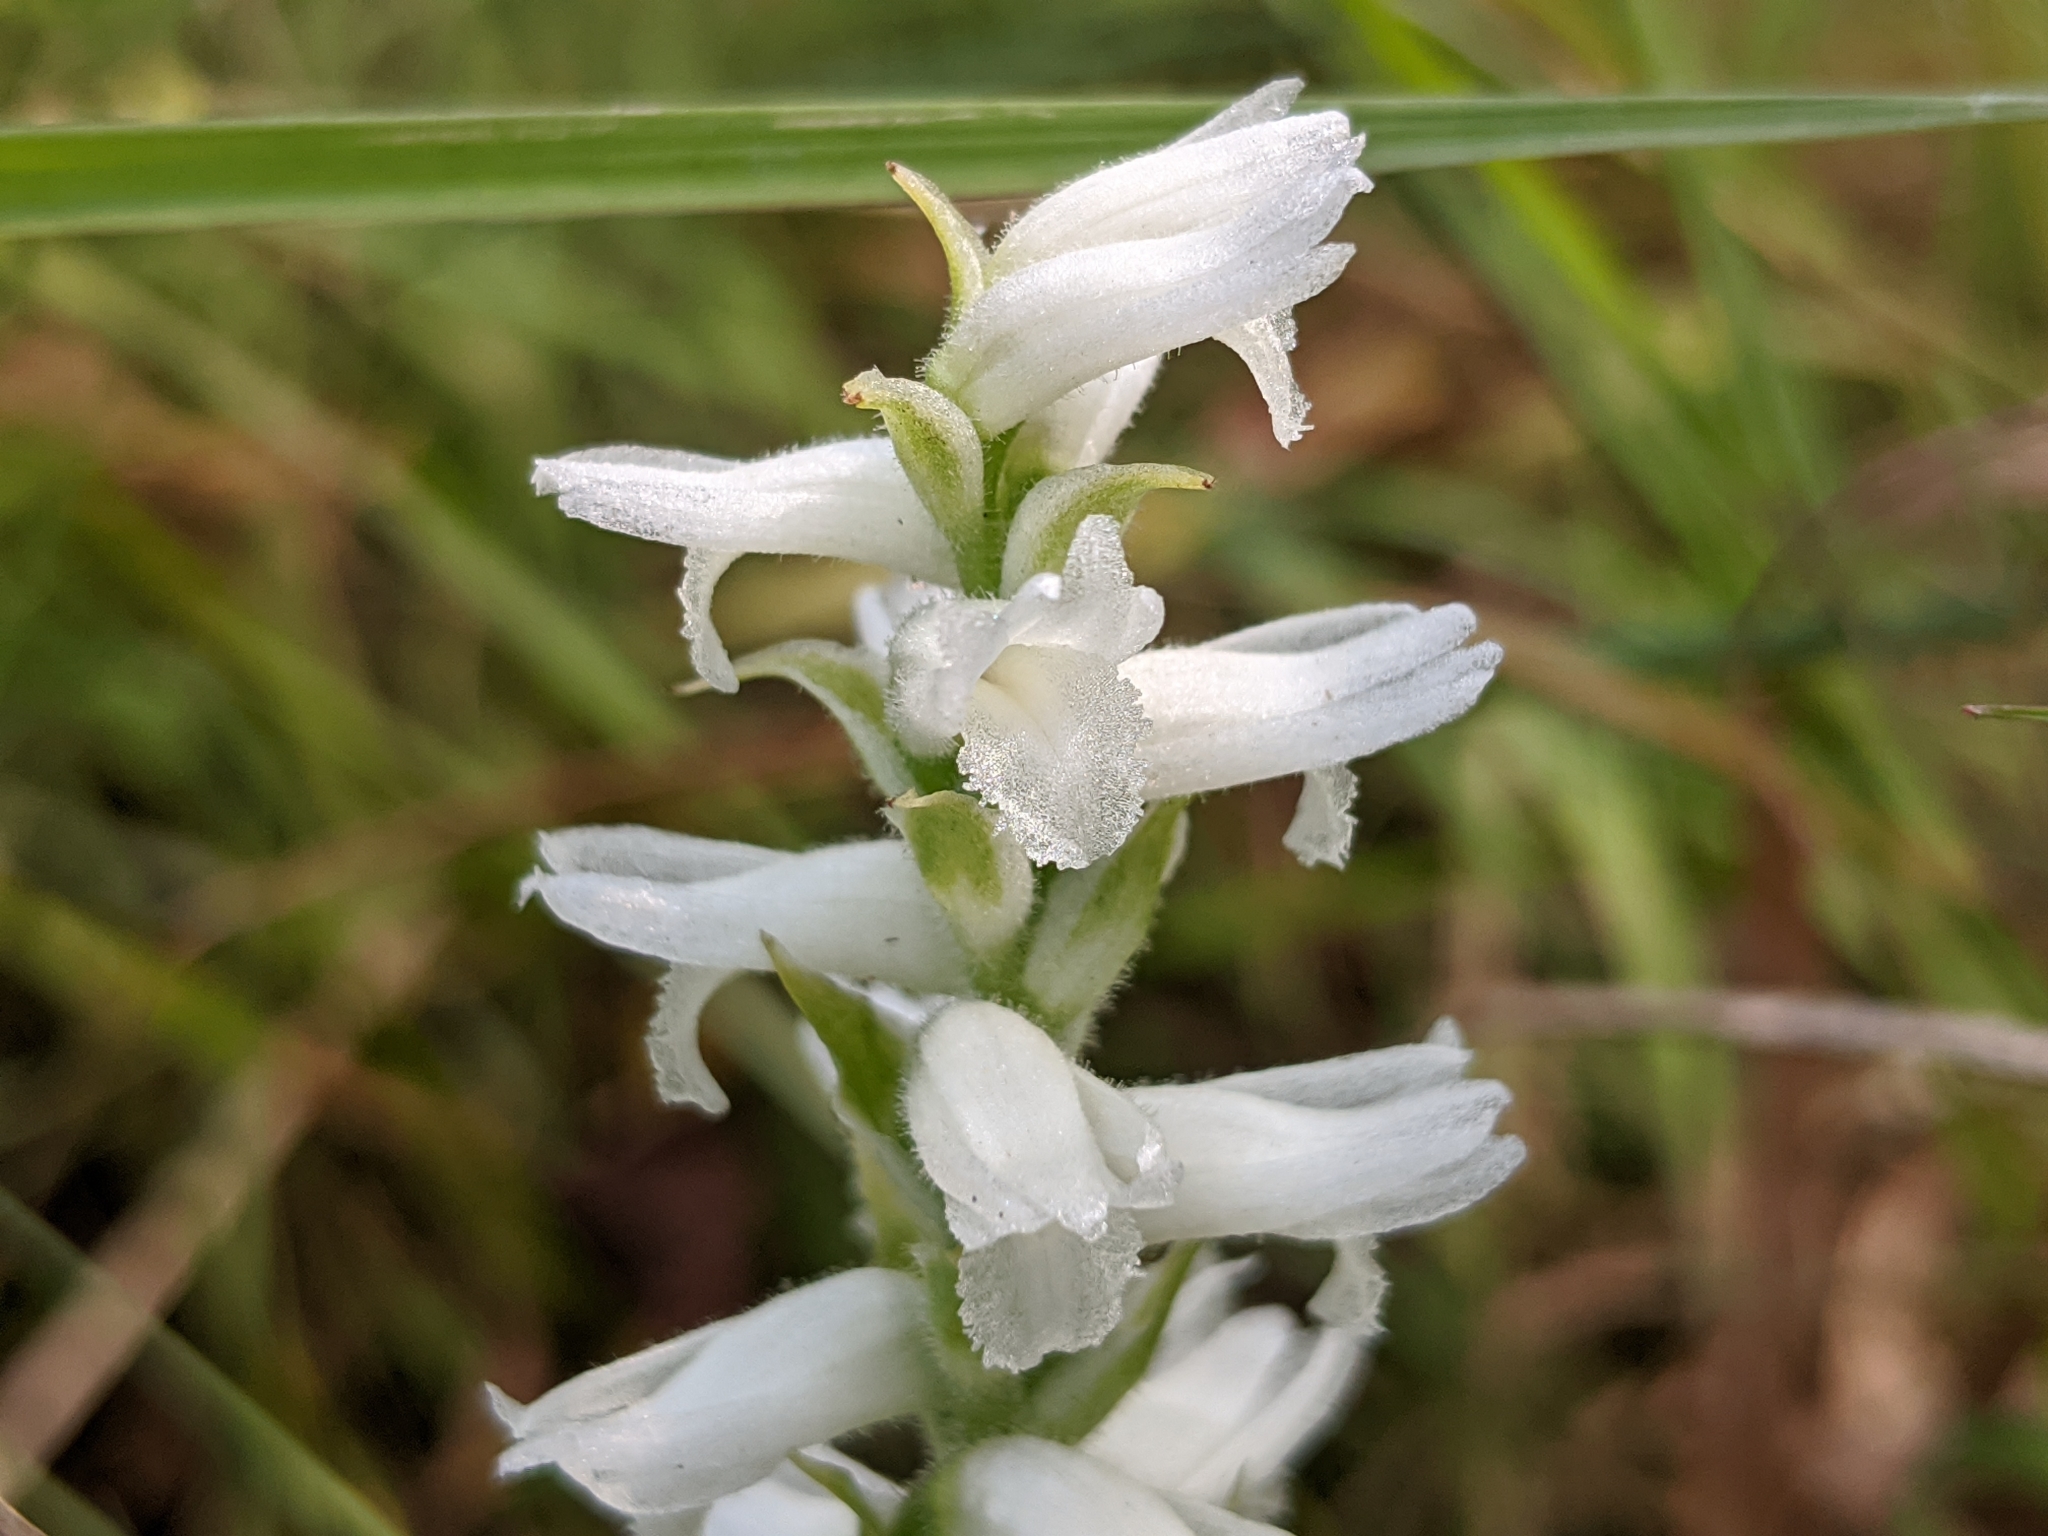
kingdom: Plantae
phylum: Tracheophyta
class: Liliopsida
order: Asparagales
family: Orchidaceae
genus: Spiranthes
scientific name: Spiranthes incurva
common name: Sphinx ladies'-tresses
